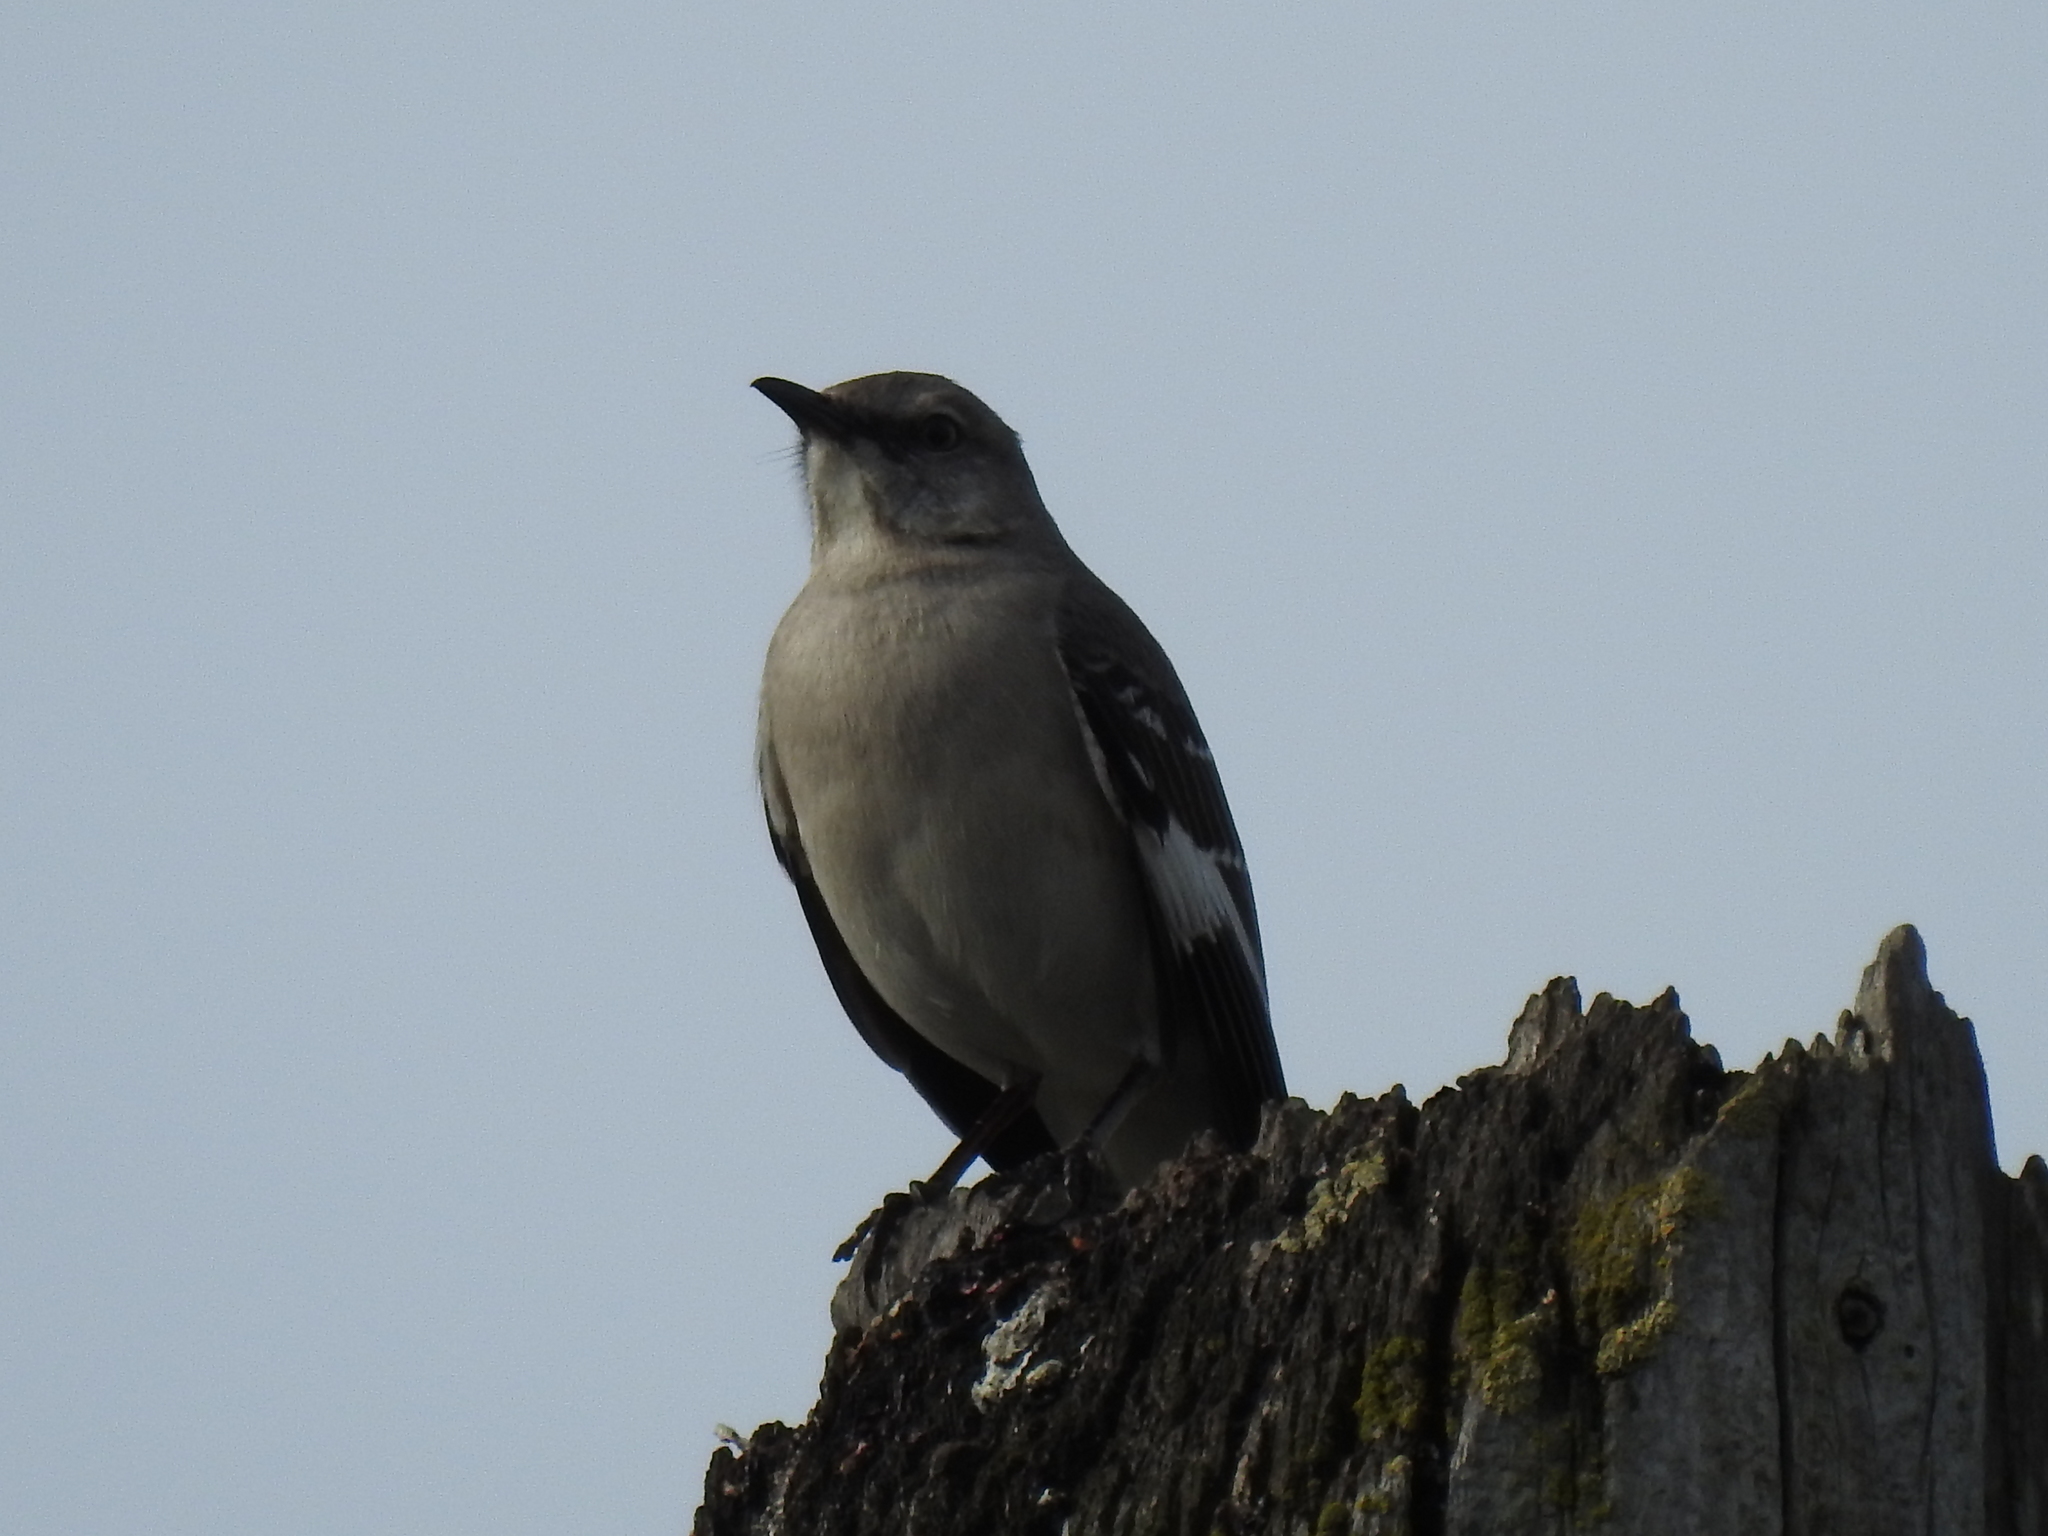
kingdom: Animalia
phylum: Chordata
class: Aves
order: Passeriformes
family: Mimidae
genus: Mimus
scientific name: Mimus polyglottos
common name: Northern mockingbird
